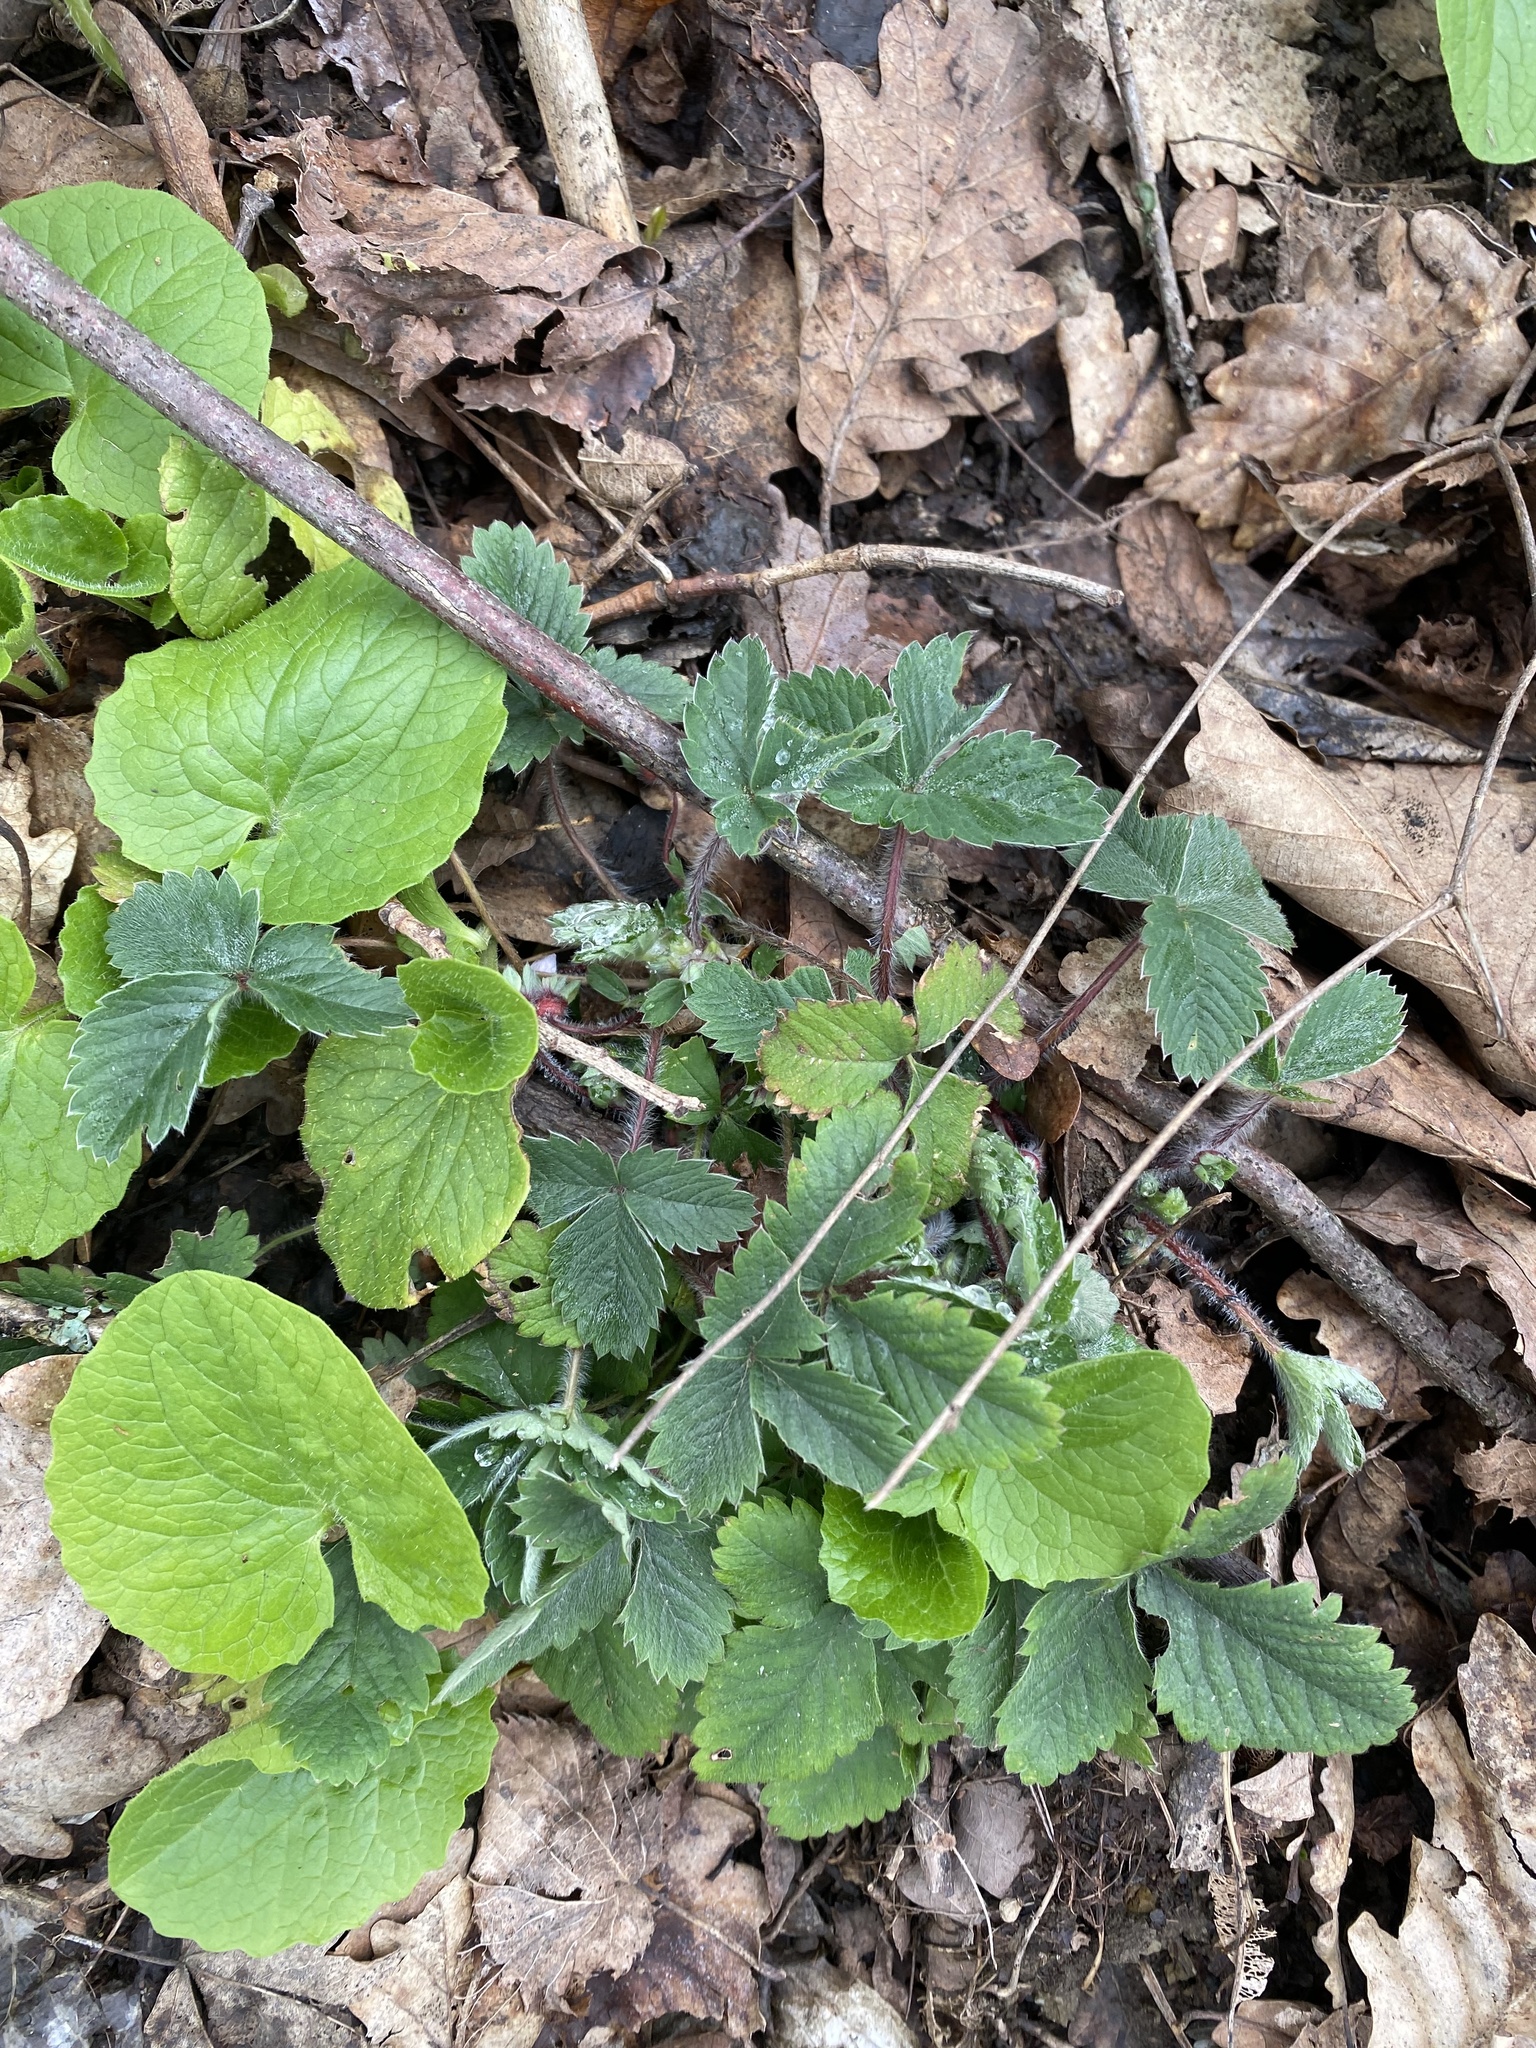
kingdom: Plantae
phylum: Tracheophyta
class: Magnoliopsida
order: Rosales
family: Rosaceae
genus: Potentilla
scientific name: Potentilla micrantha
